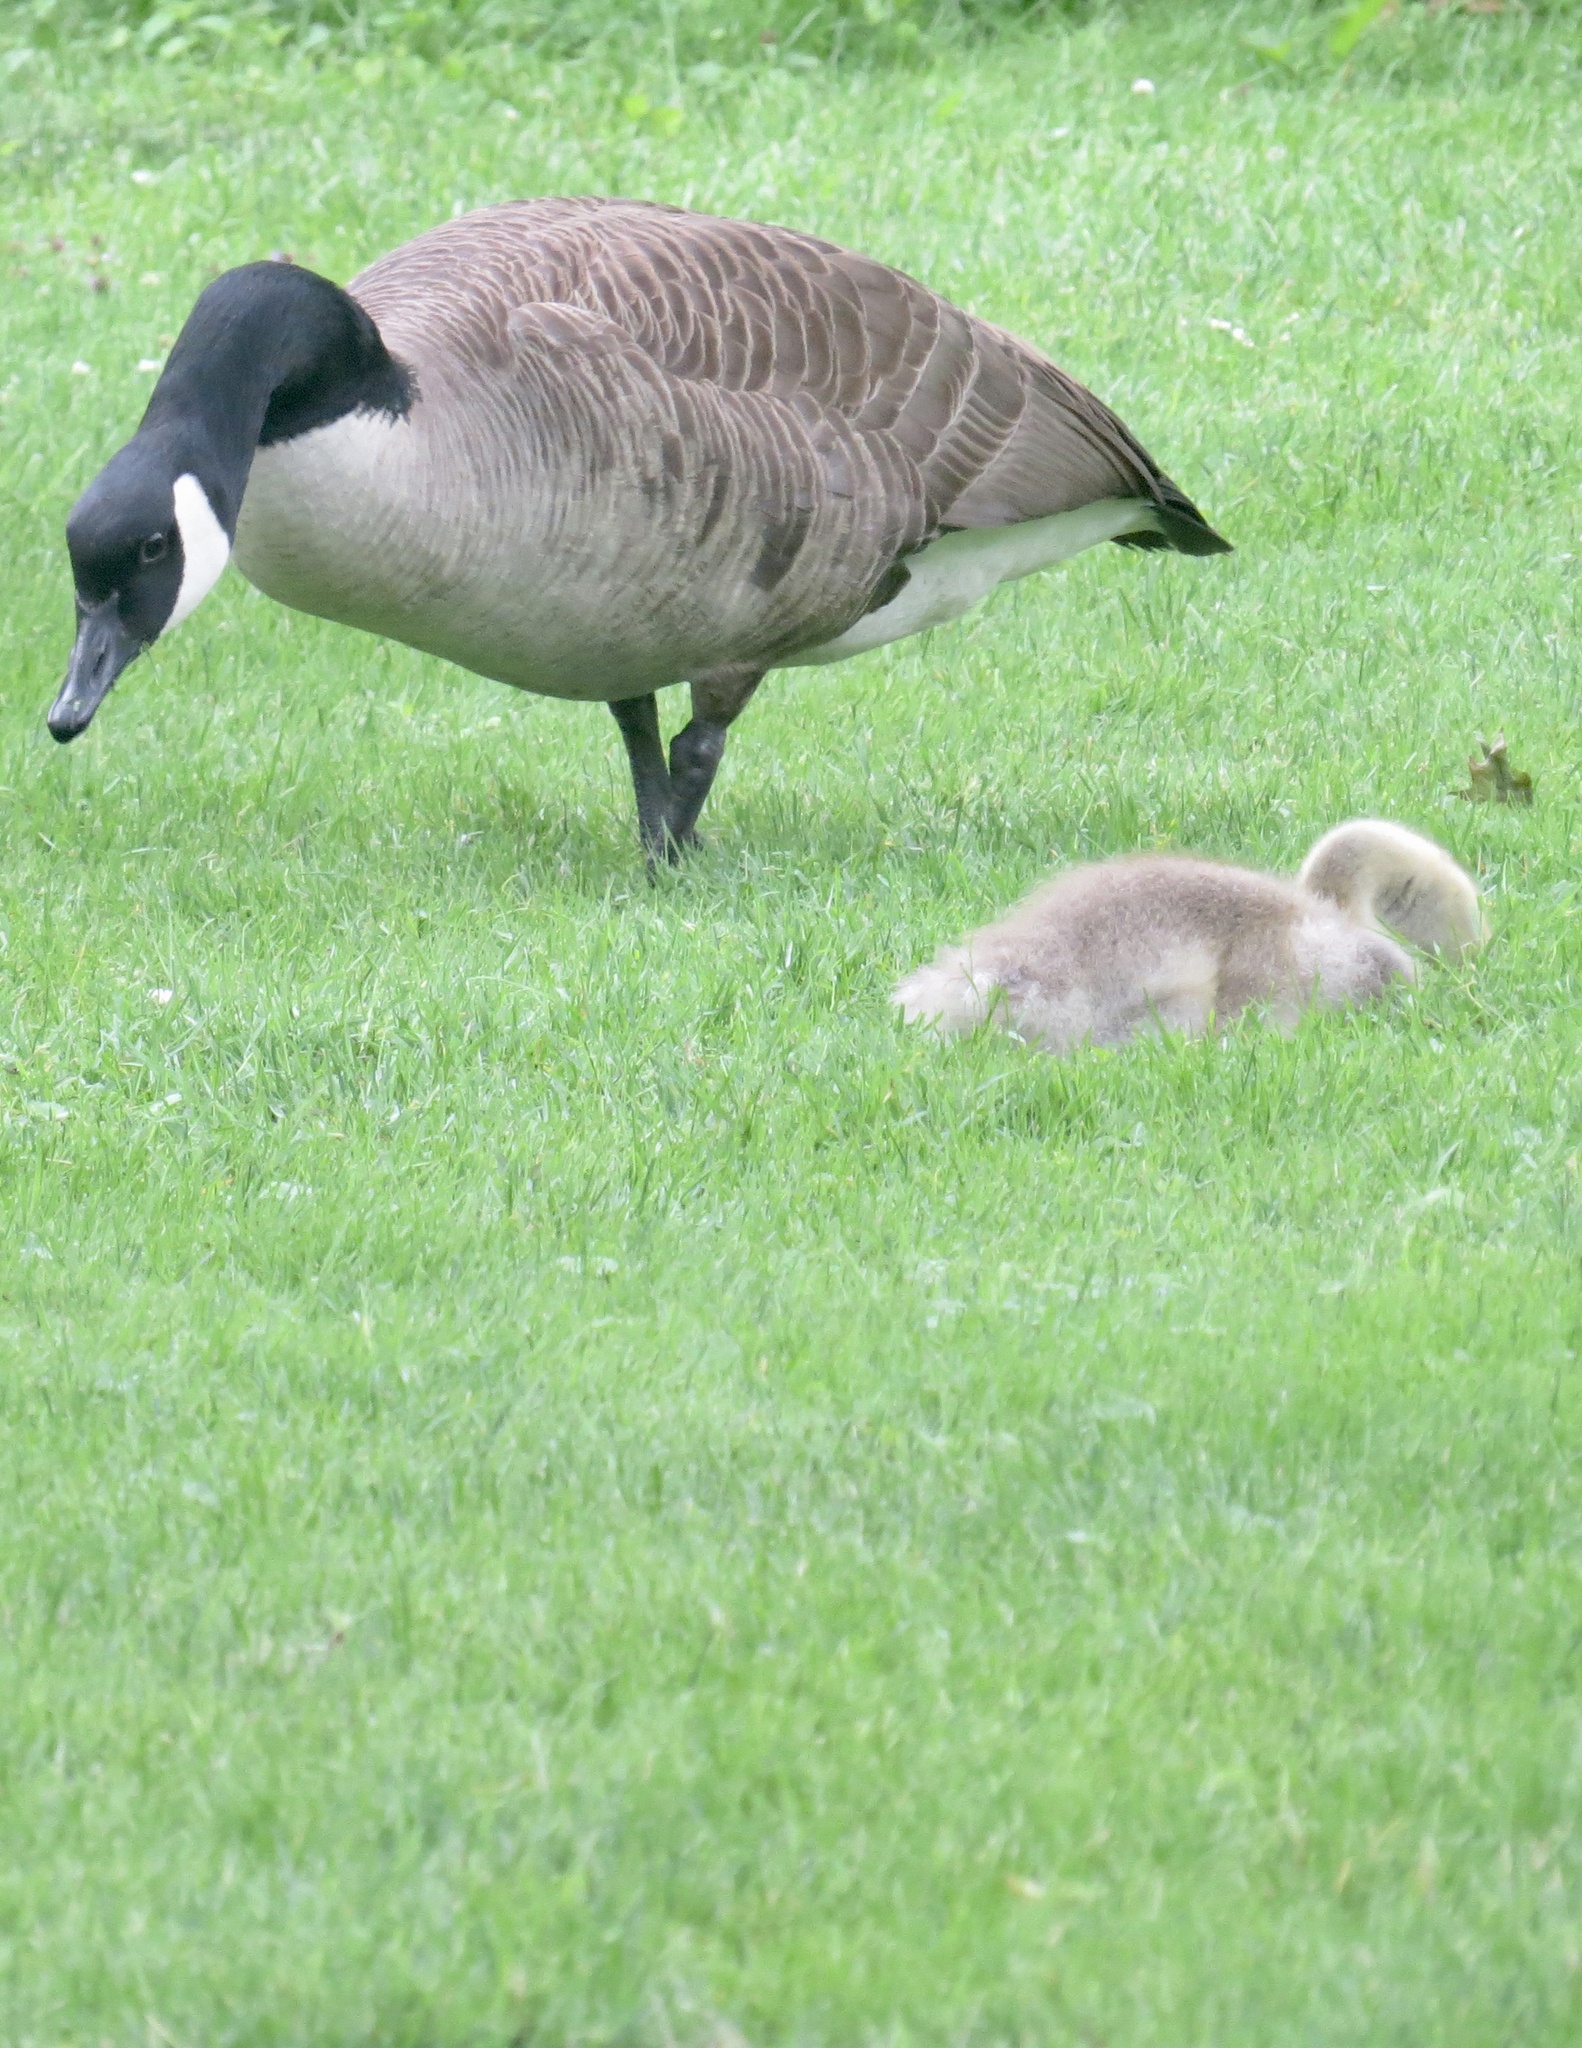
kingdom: Animalia
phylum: Chordata
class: Aves
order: Anseriformes
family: Anatidae
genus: Branta
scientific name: Branta canadensis
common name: Canada goose
